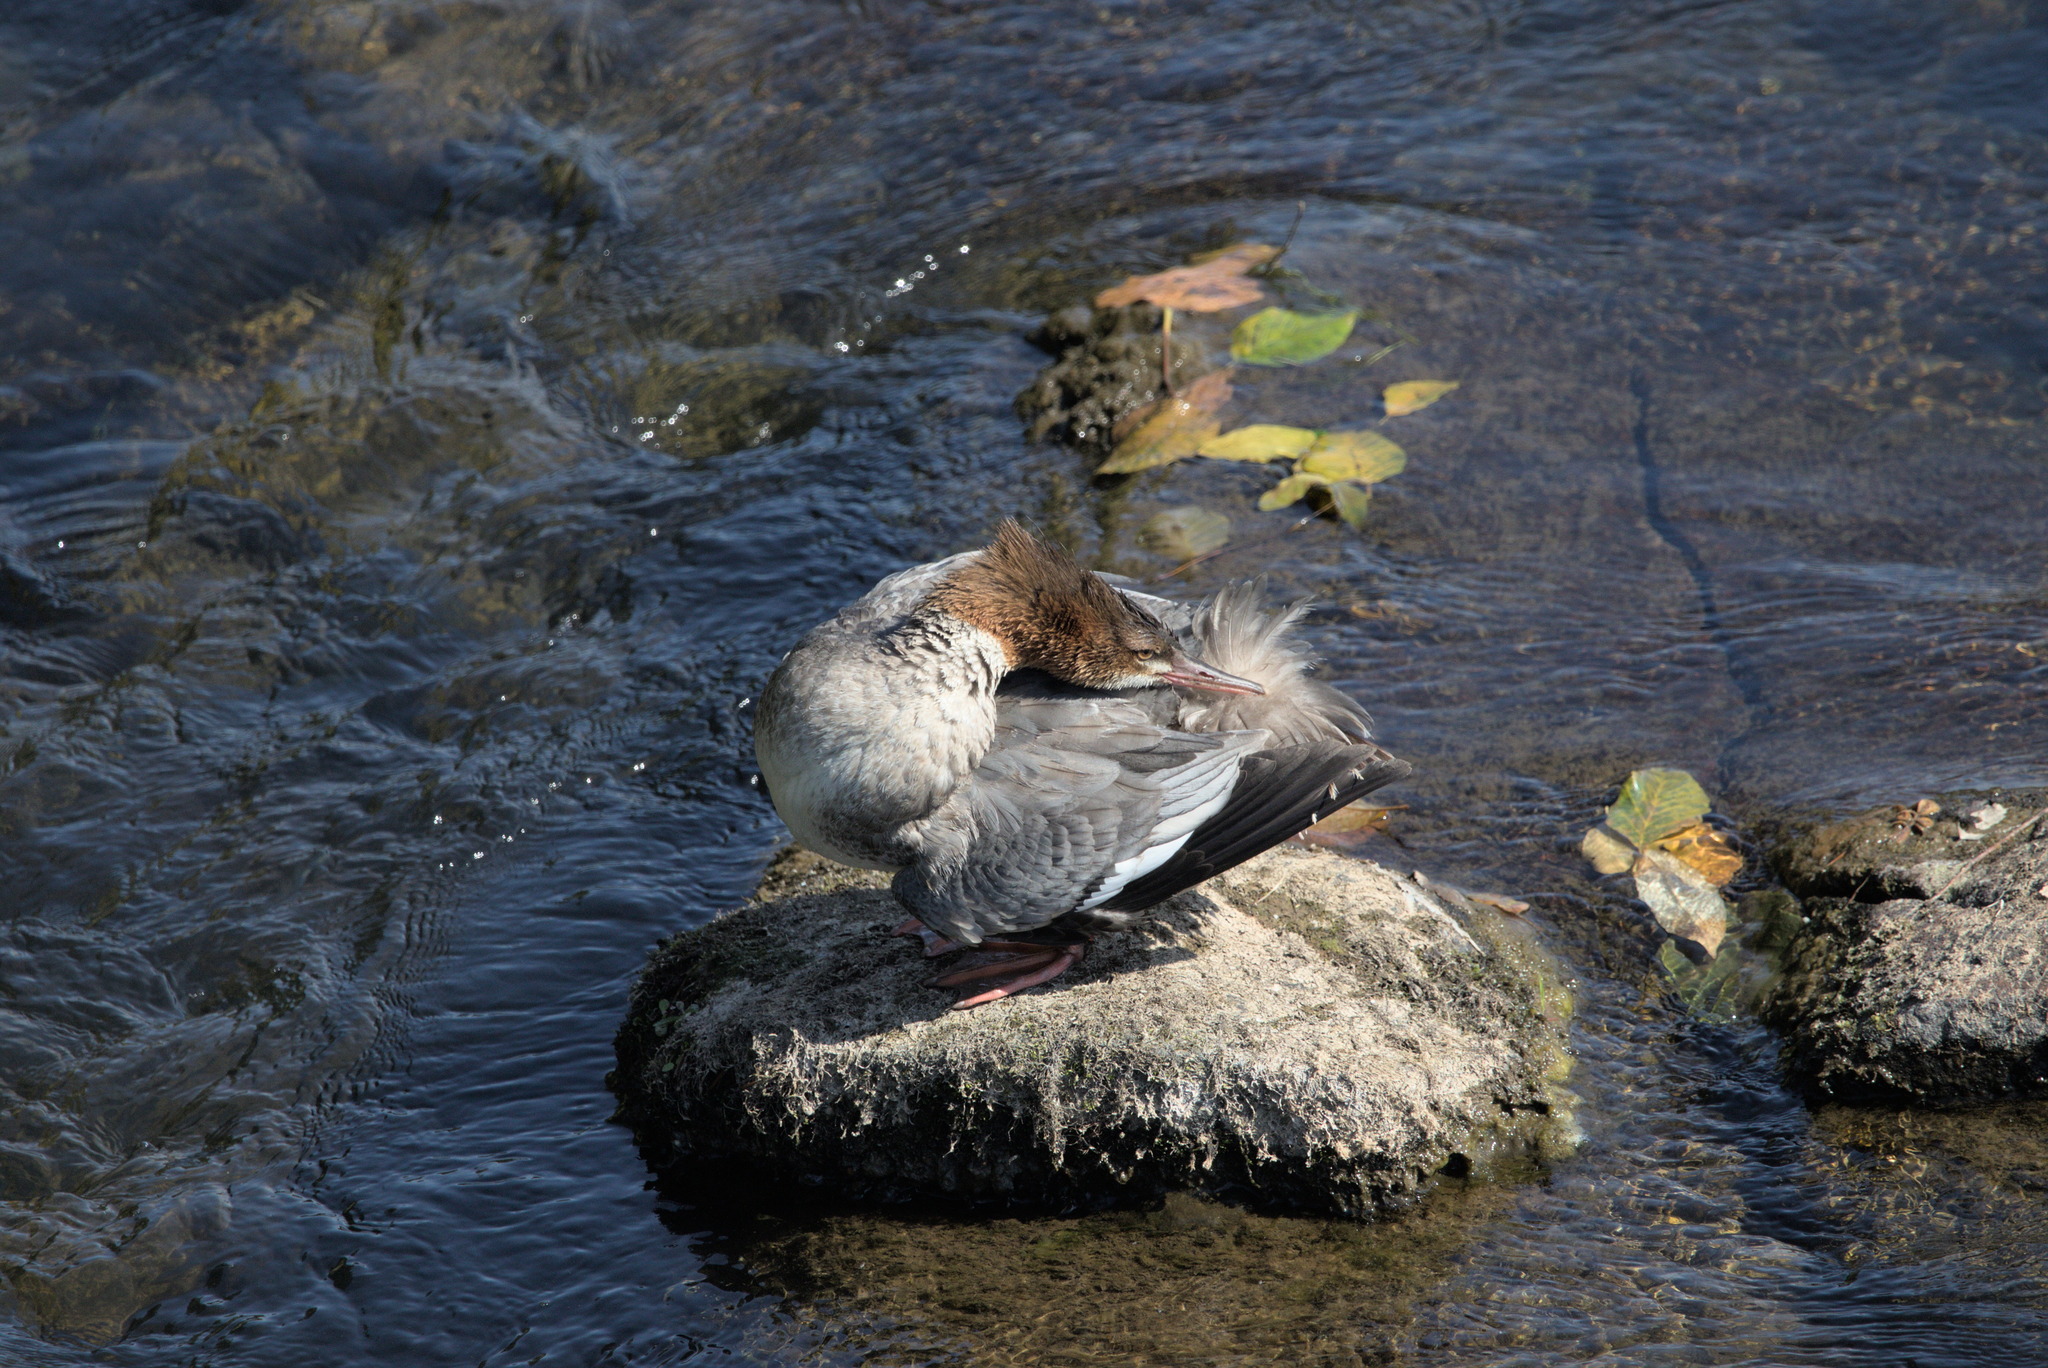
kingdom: Animalia
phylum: Chordata
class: Aves
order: Anseriformes
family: Anatidae
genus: Mergus
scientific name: Mergus merganser
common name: Common merganser
